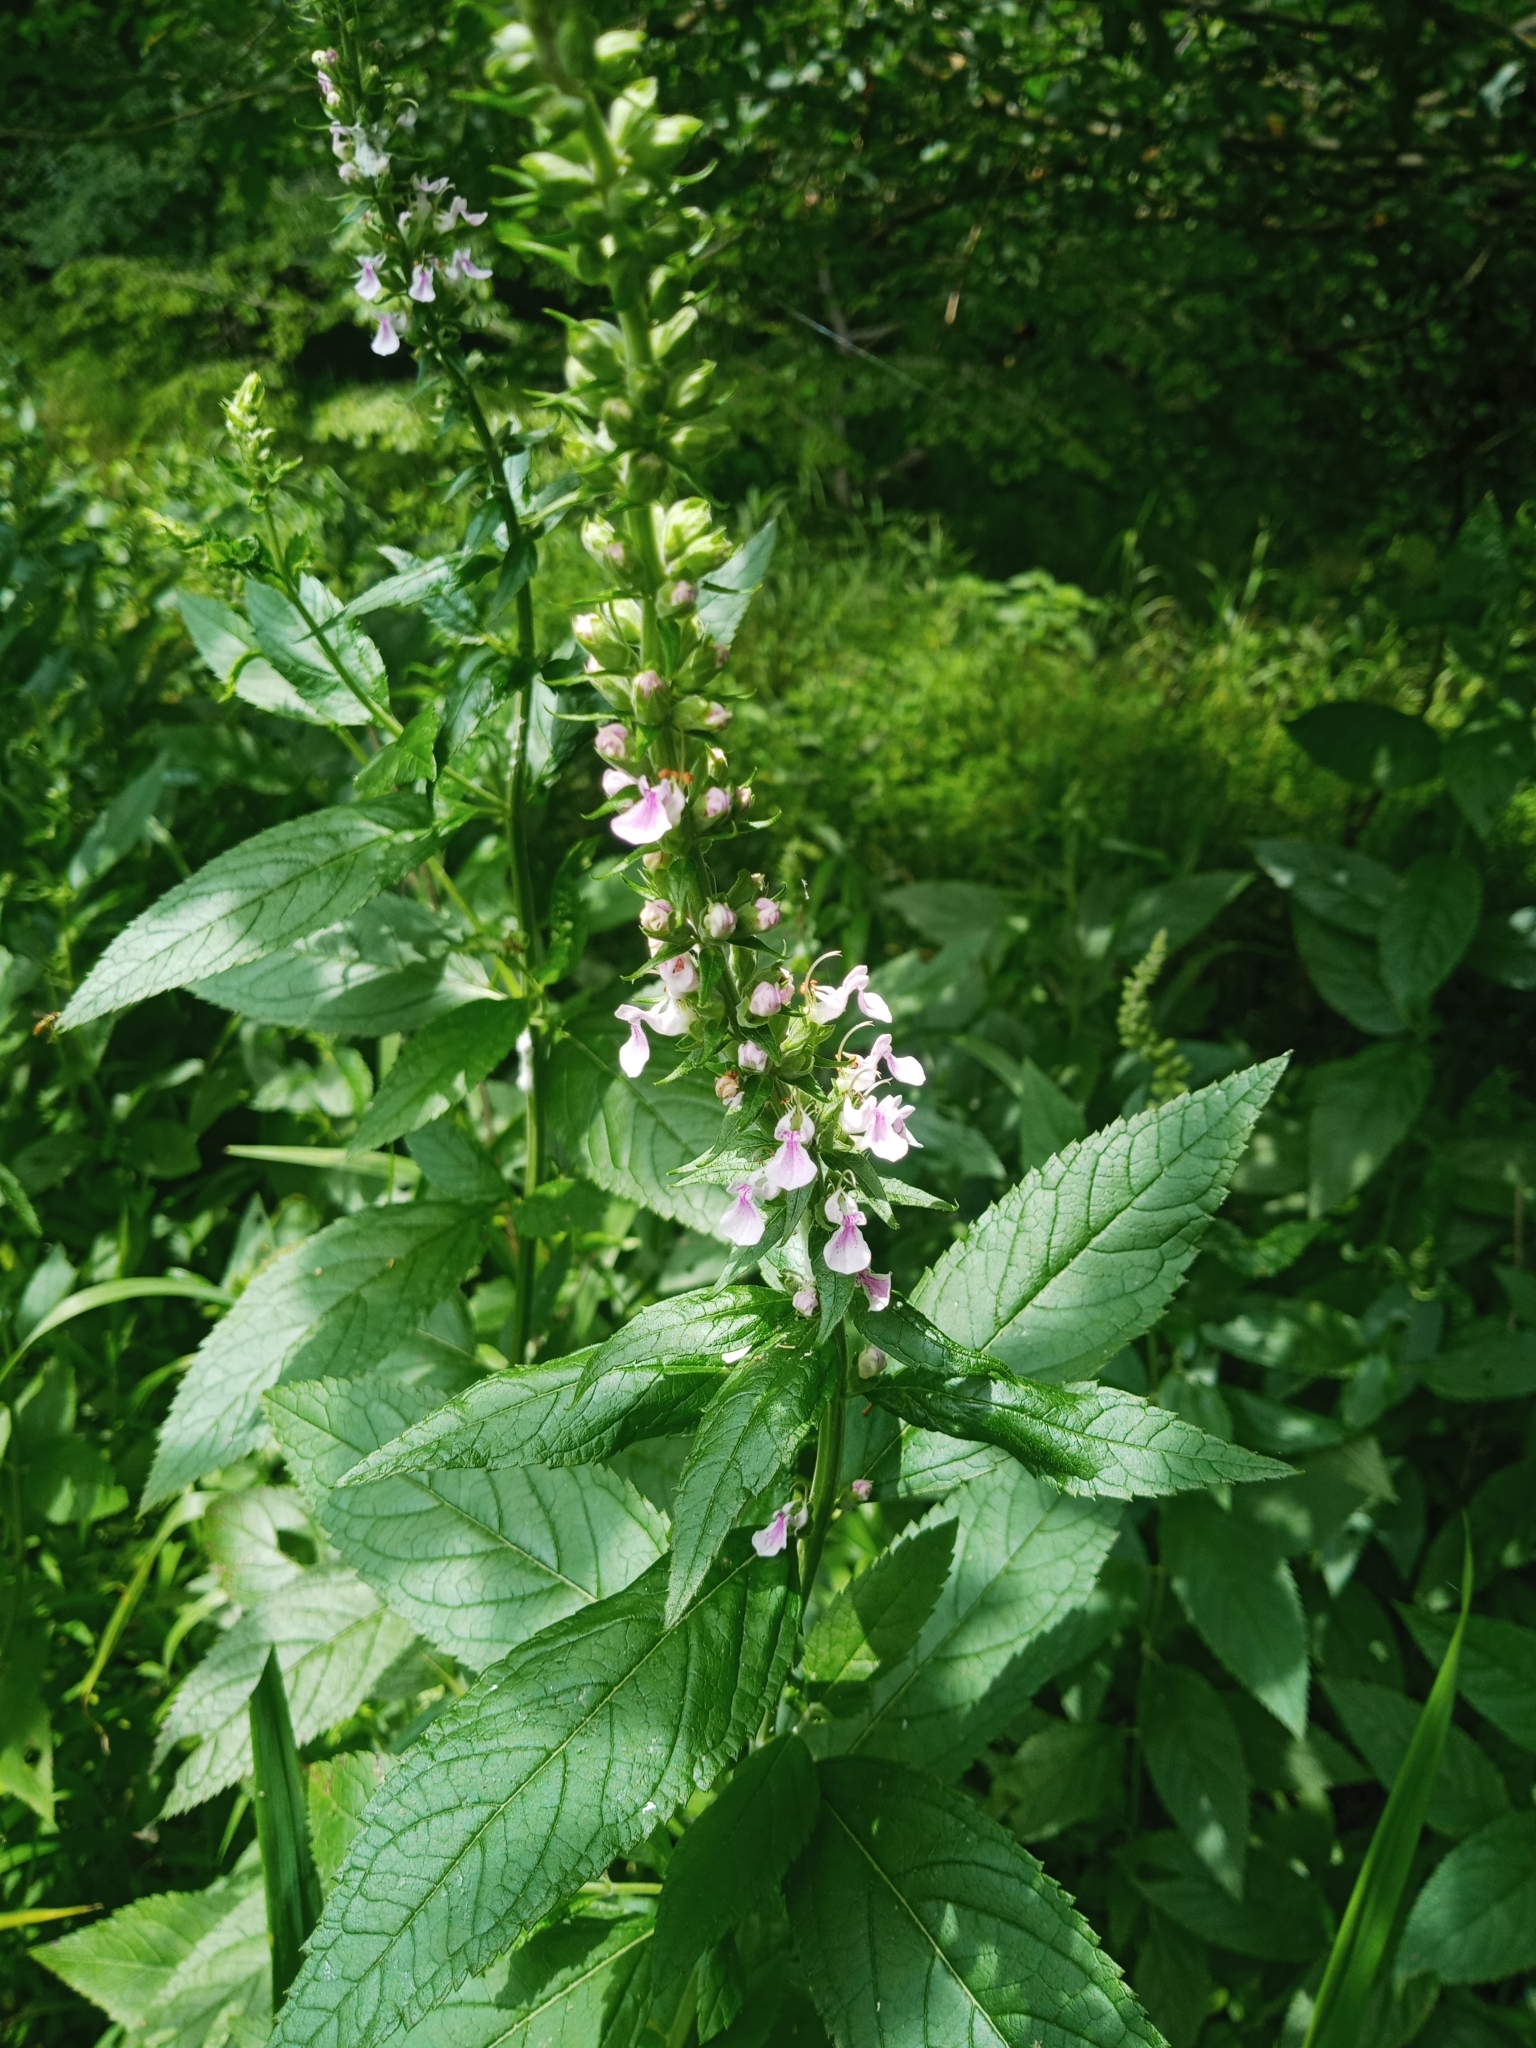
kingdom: Plantae
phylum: Tracheophyta
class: Magnoliopsida
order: Lamiales
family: Lamiaceae
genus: Teucrium
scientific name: Teucrium canadense
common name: American germander
